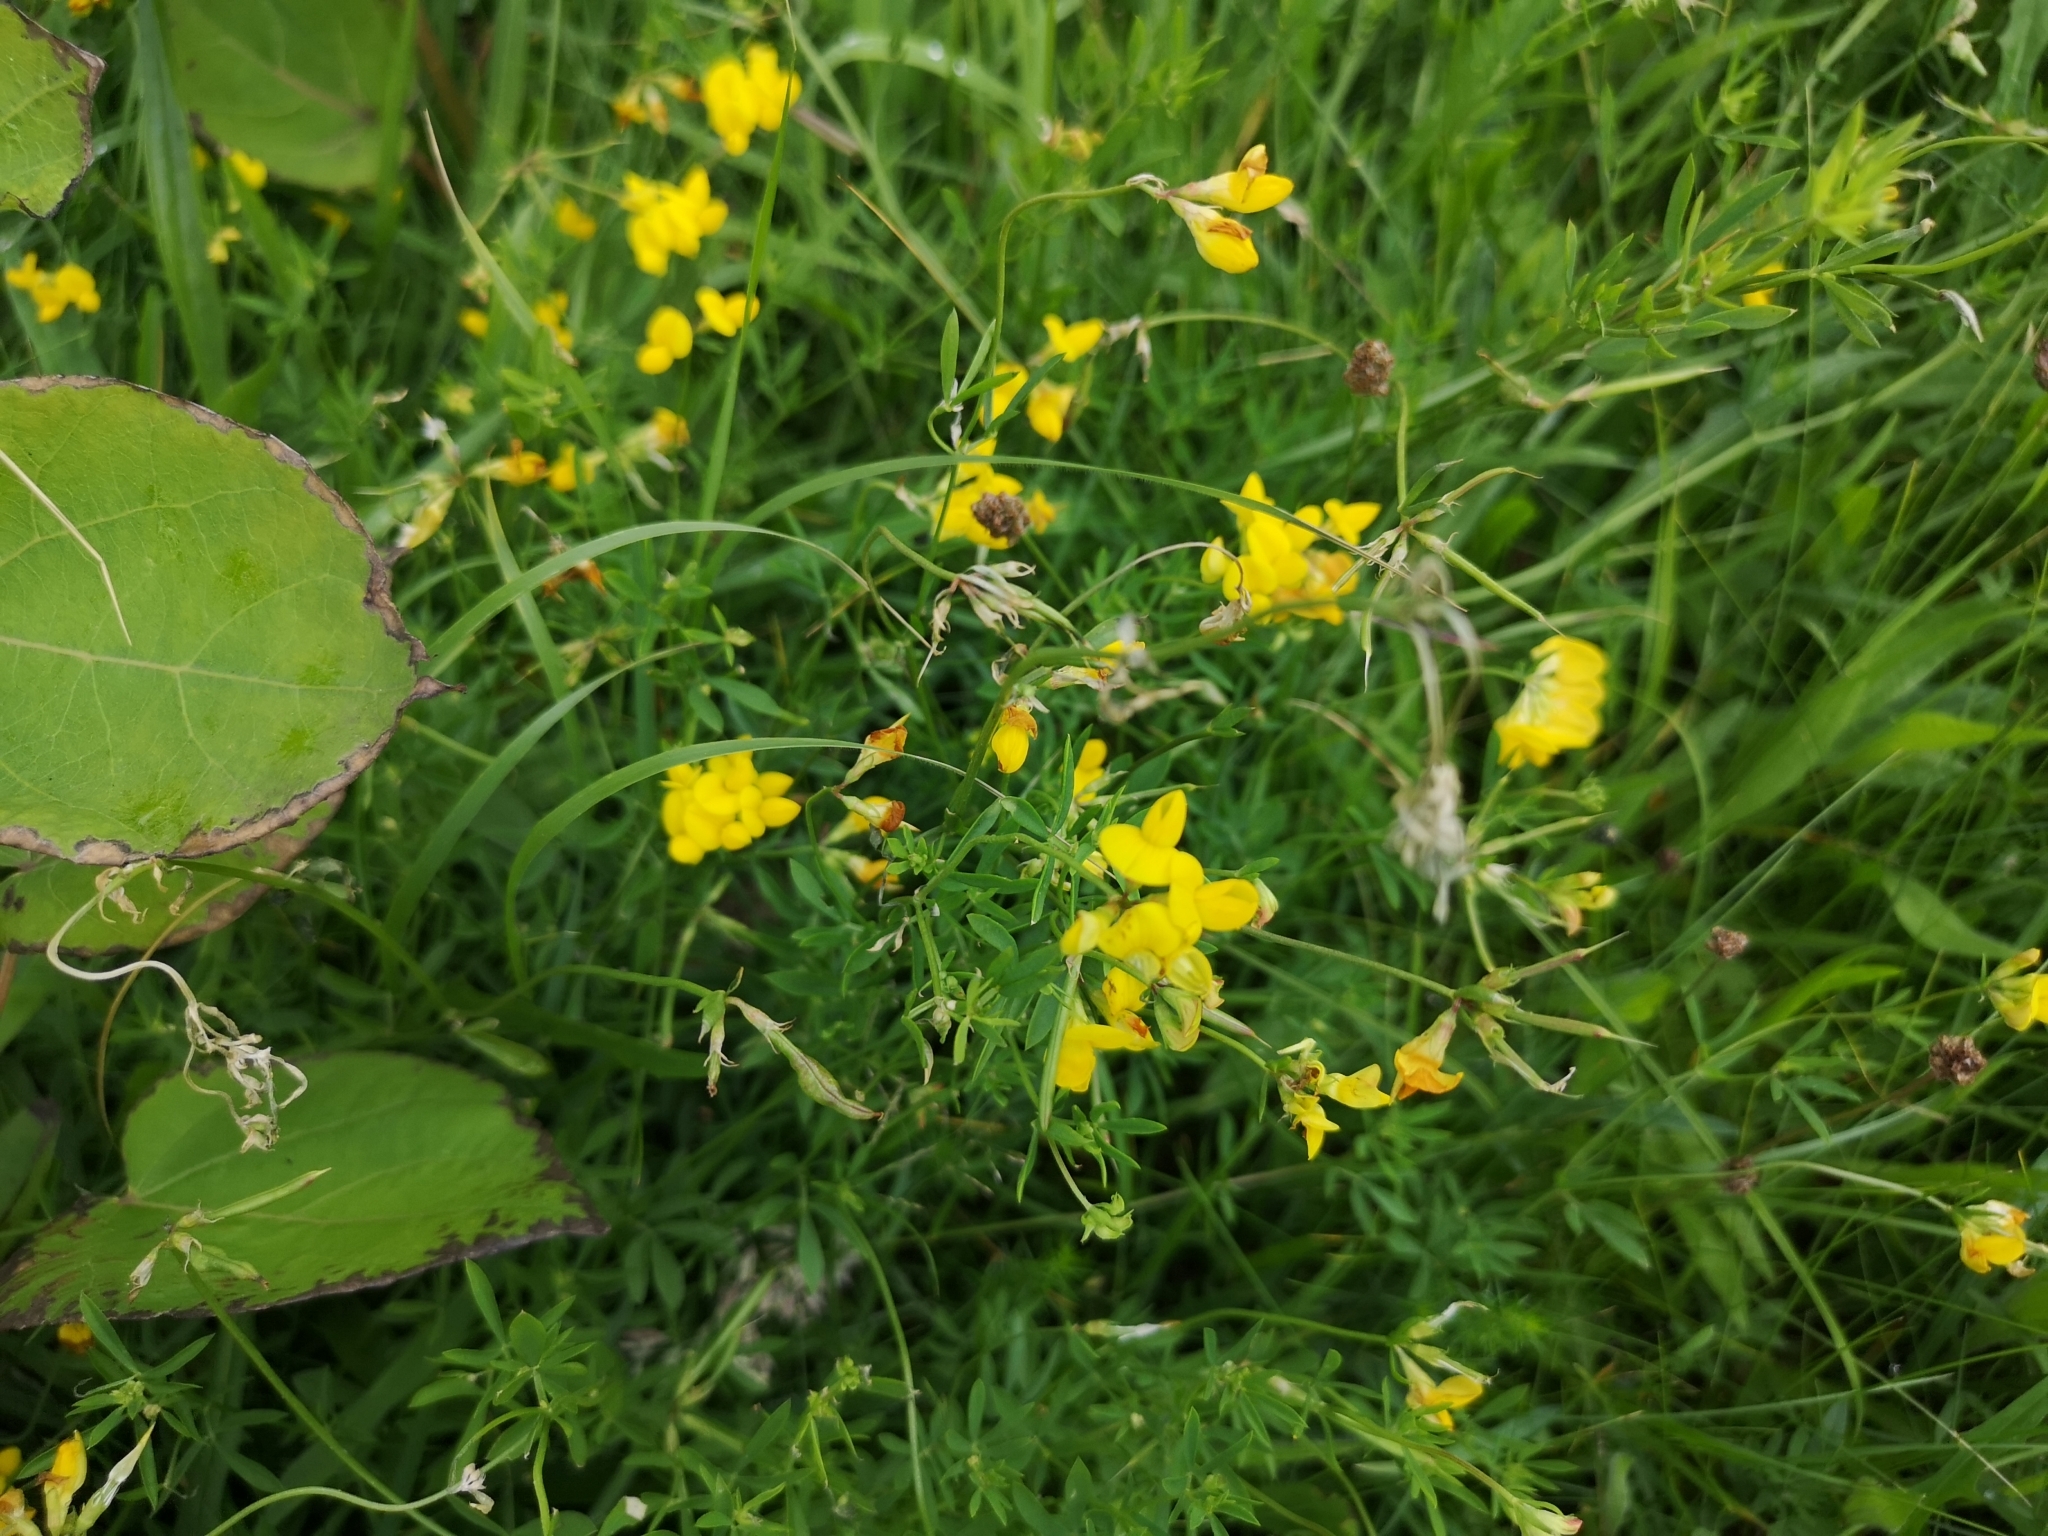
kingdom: Plantae
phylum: Tracheophyta
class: Magnoliopsida
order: Fabales
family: Fabaceae
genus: Lotus
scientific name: Lotus corniculatus
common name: Common bird's-foot-trefoil
